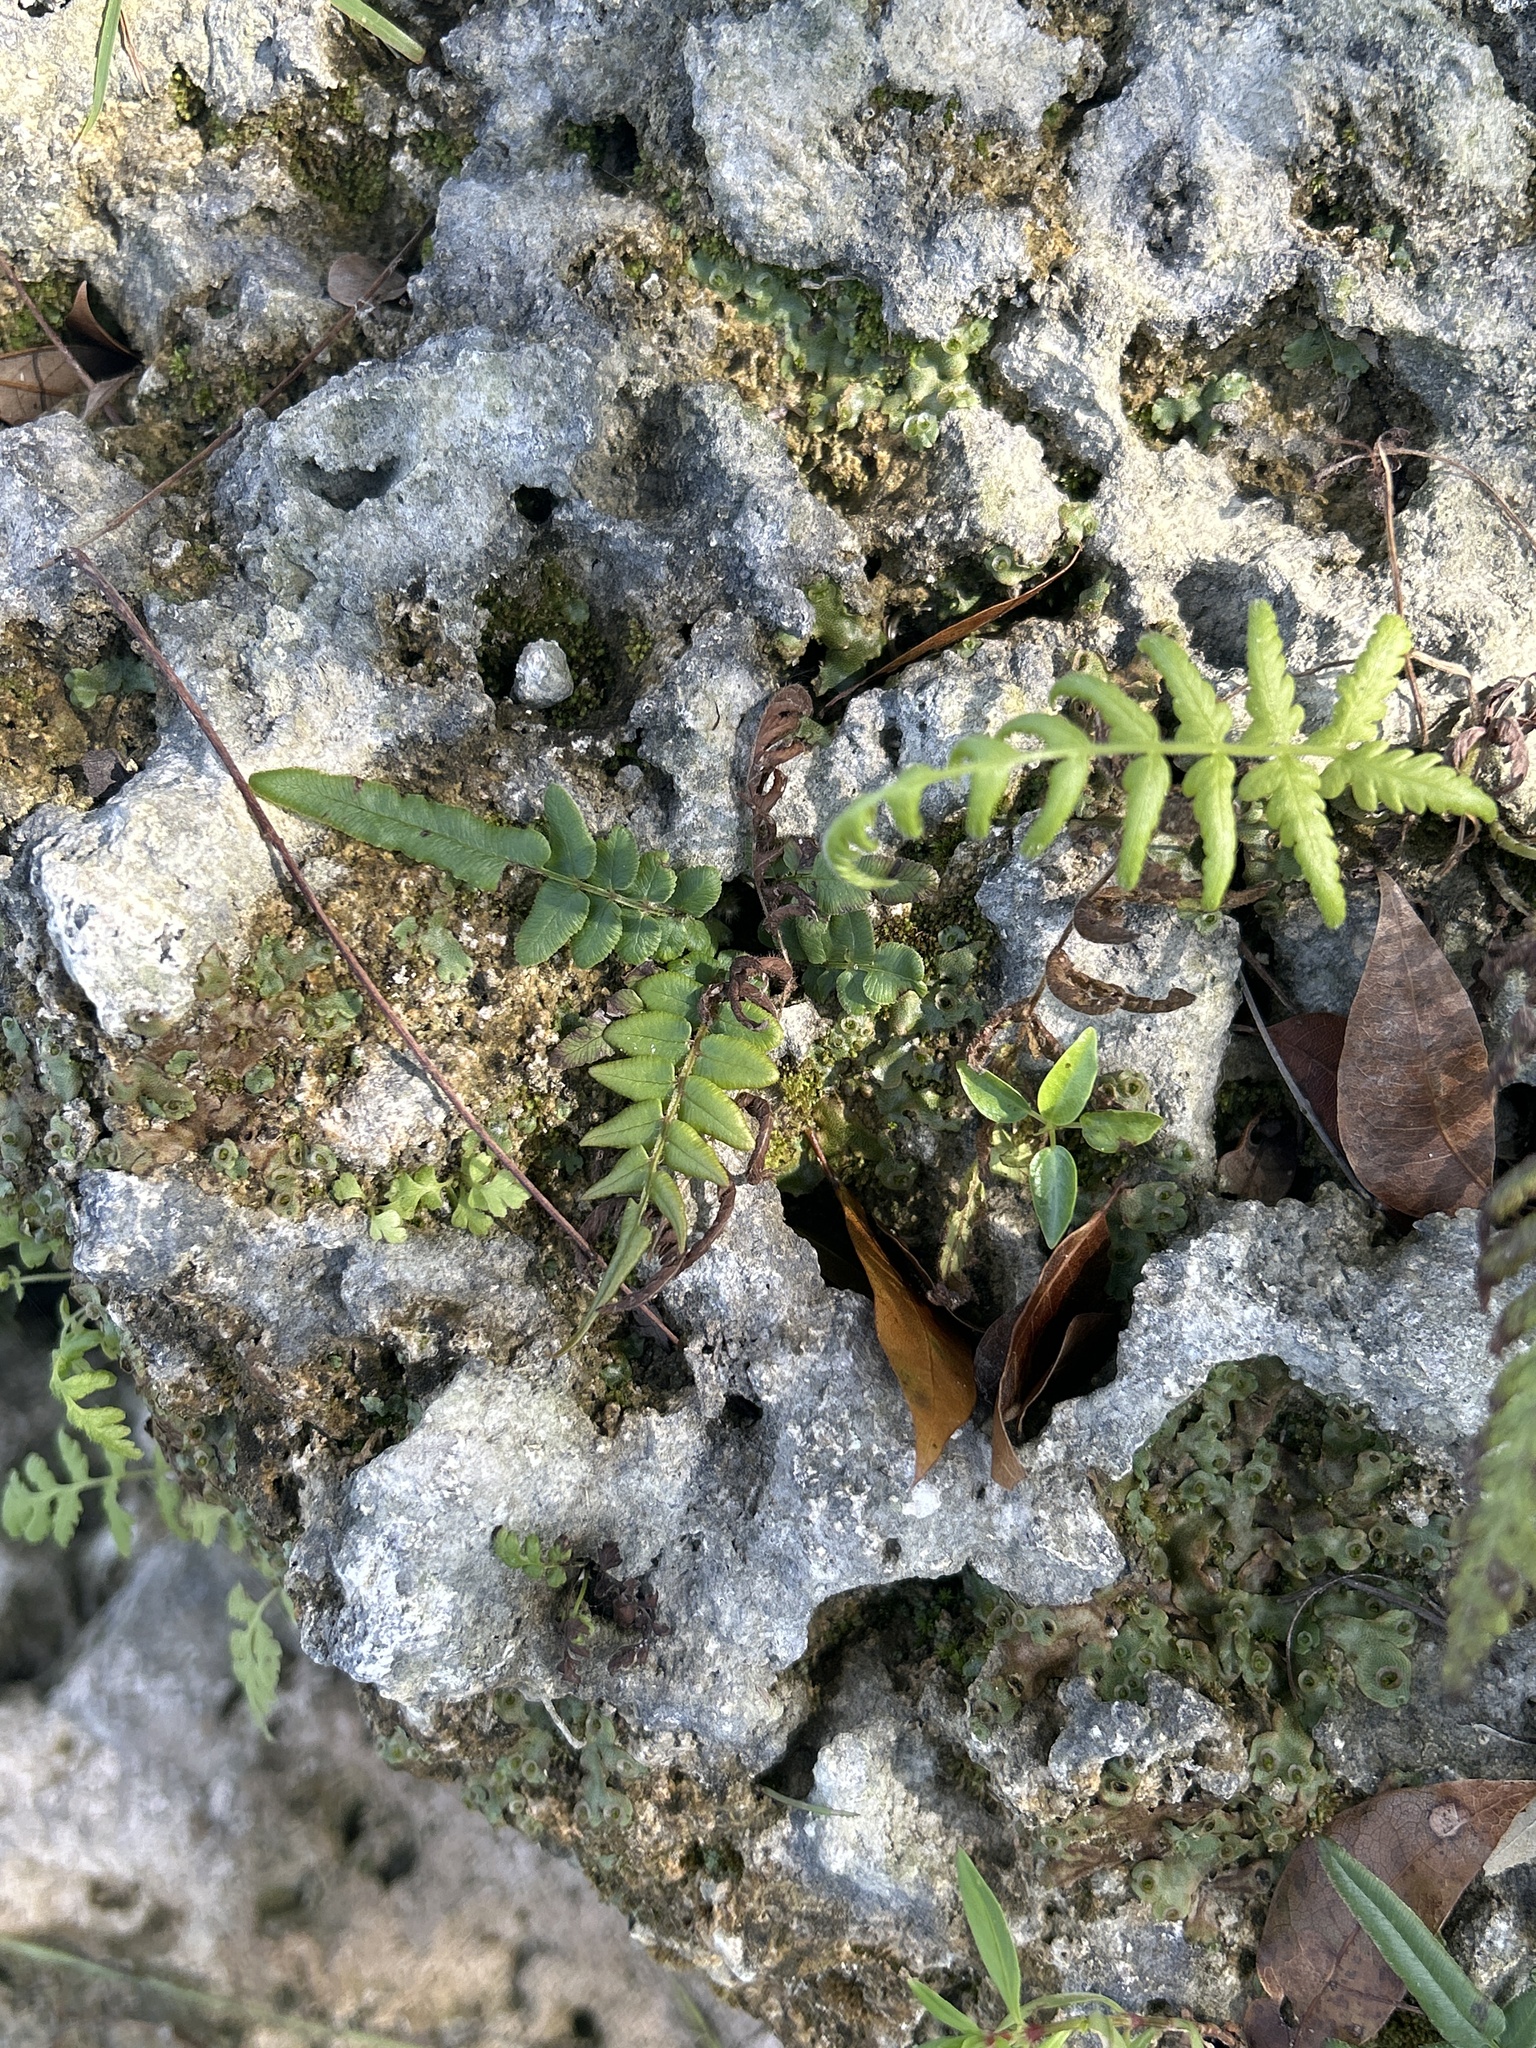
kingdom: Plantae
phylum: Tracheophyta
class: Polypodiopsida
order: Polypodiales
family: Pteridaceae
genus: Pteris
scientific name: Pteris vittata
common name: Ladder brake
